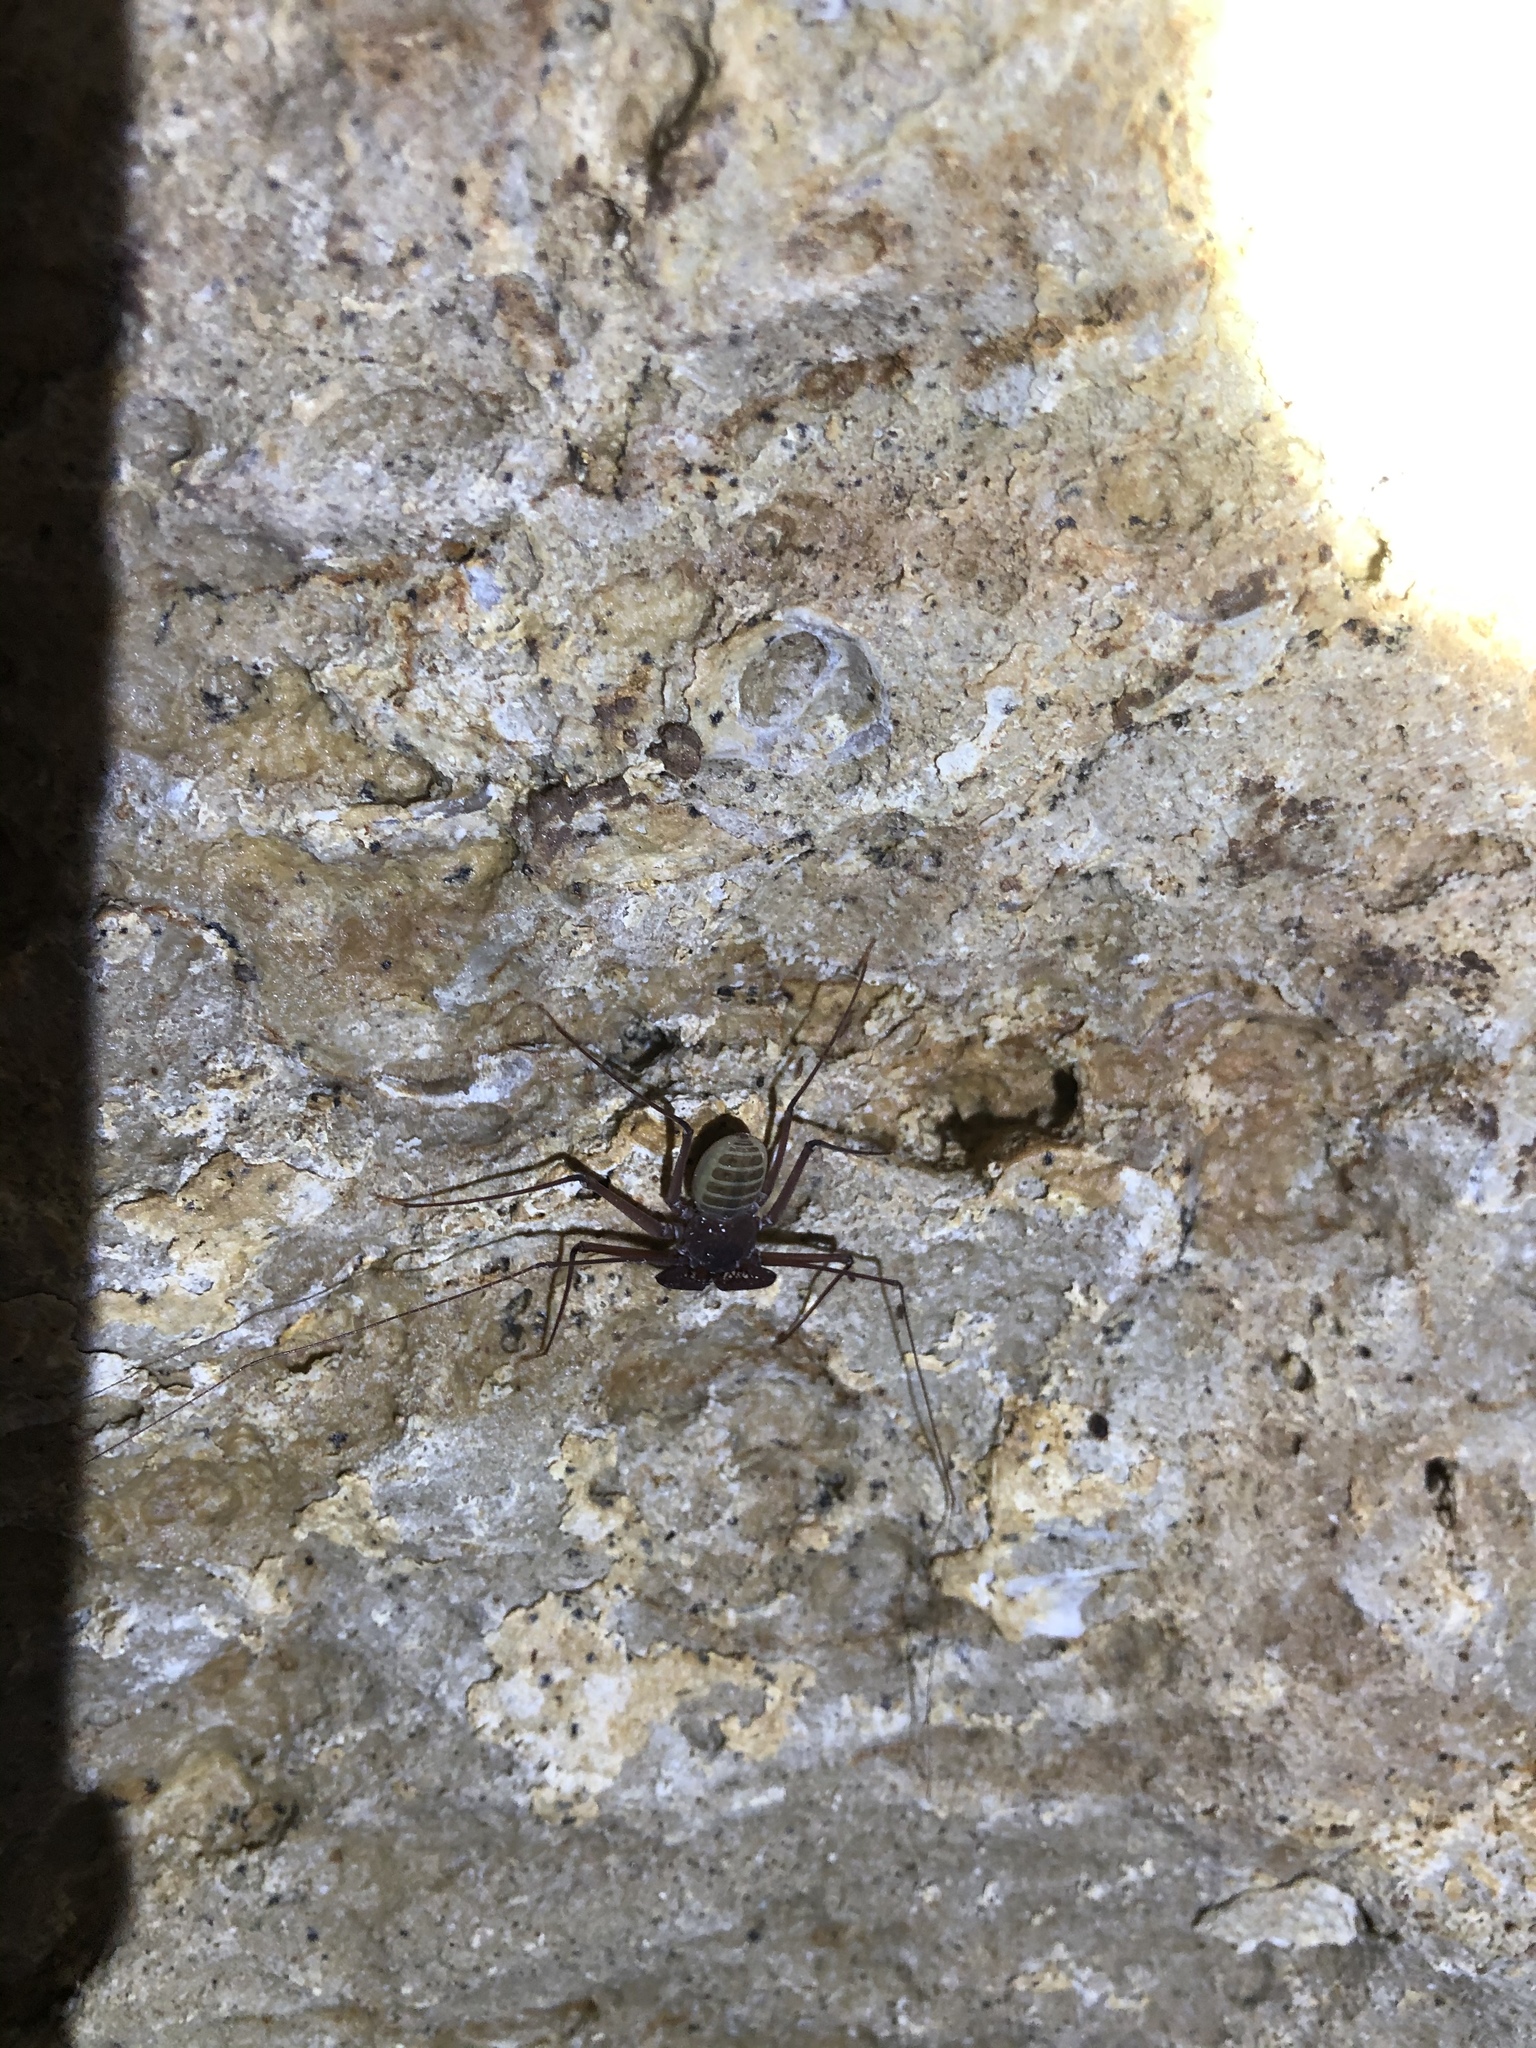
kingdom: Animalia
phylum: Arthropoda
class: Arachnida
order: Amblypygi
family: Phrynidae
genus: Phrynus
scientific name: Phrynus operculatus
